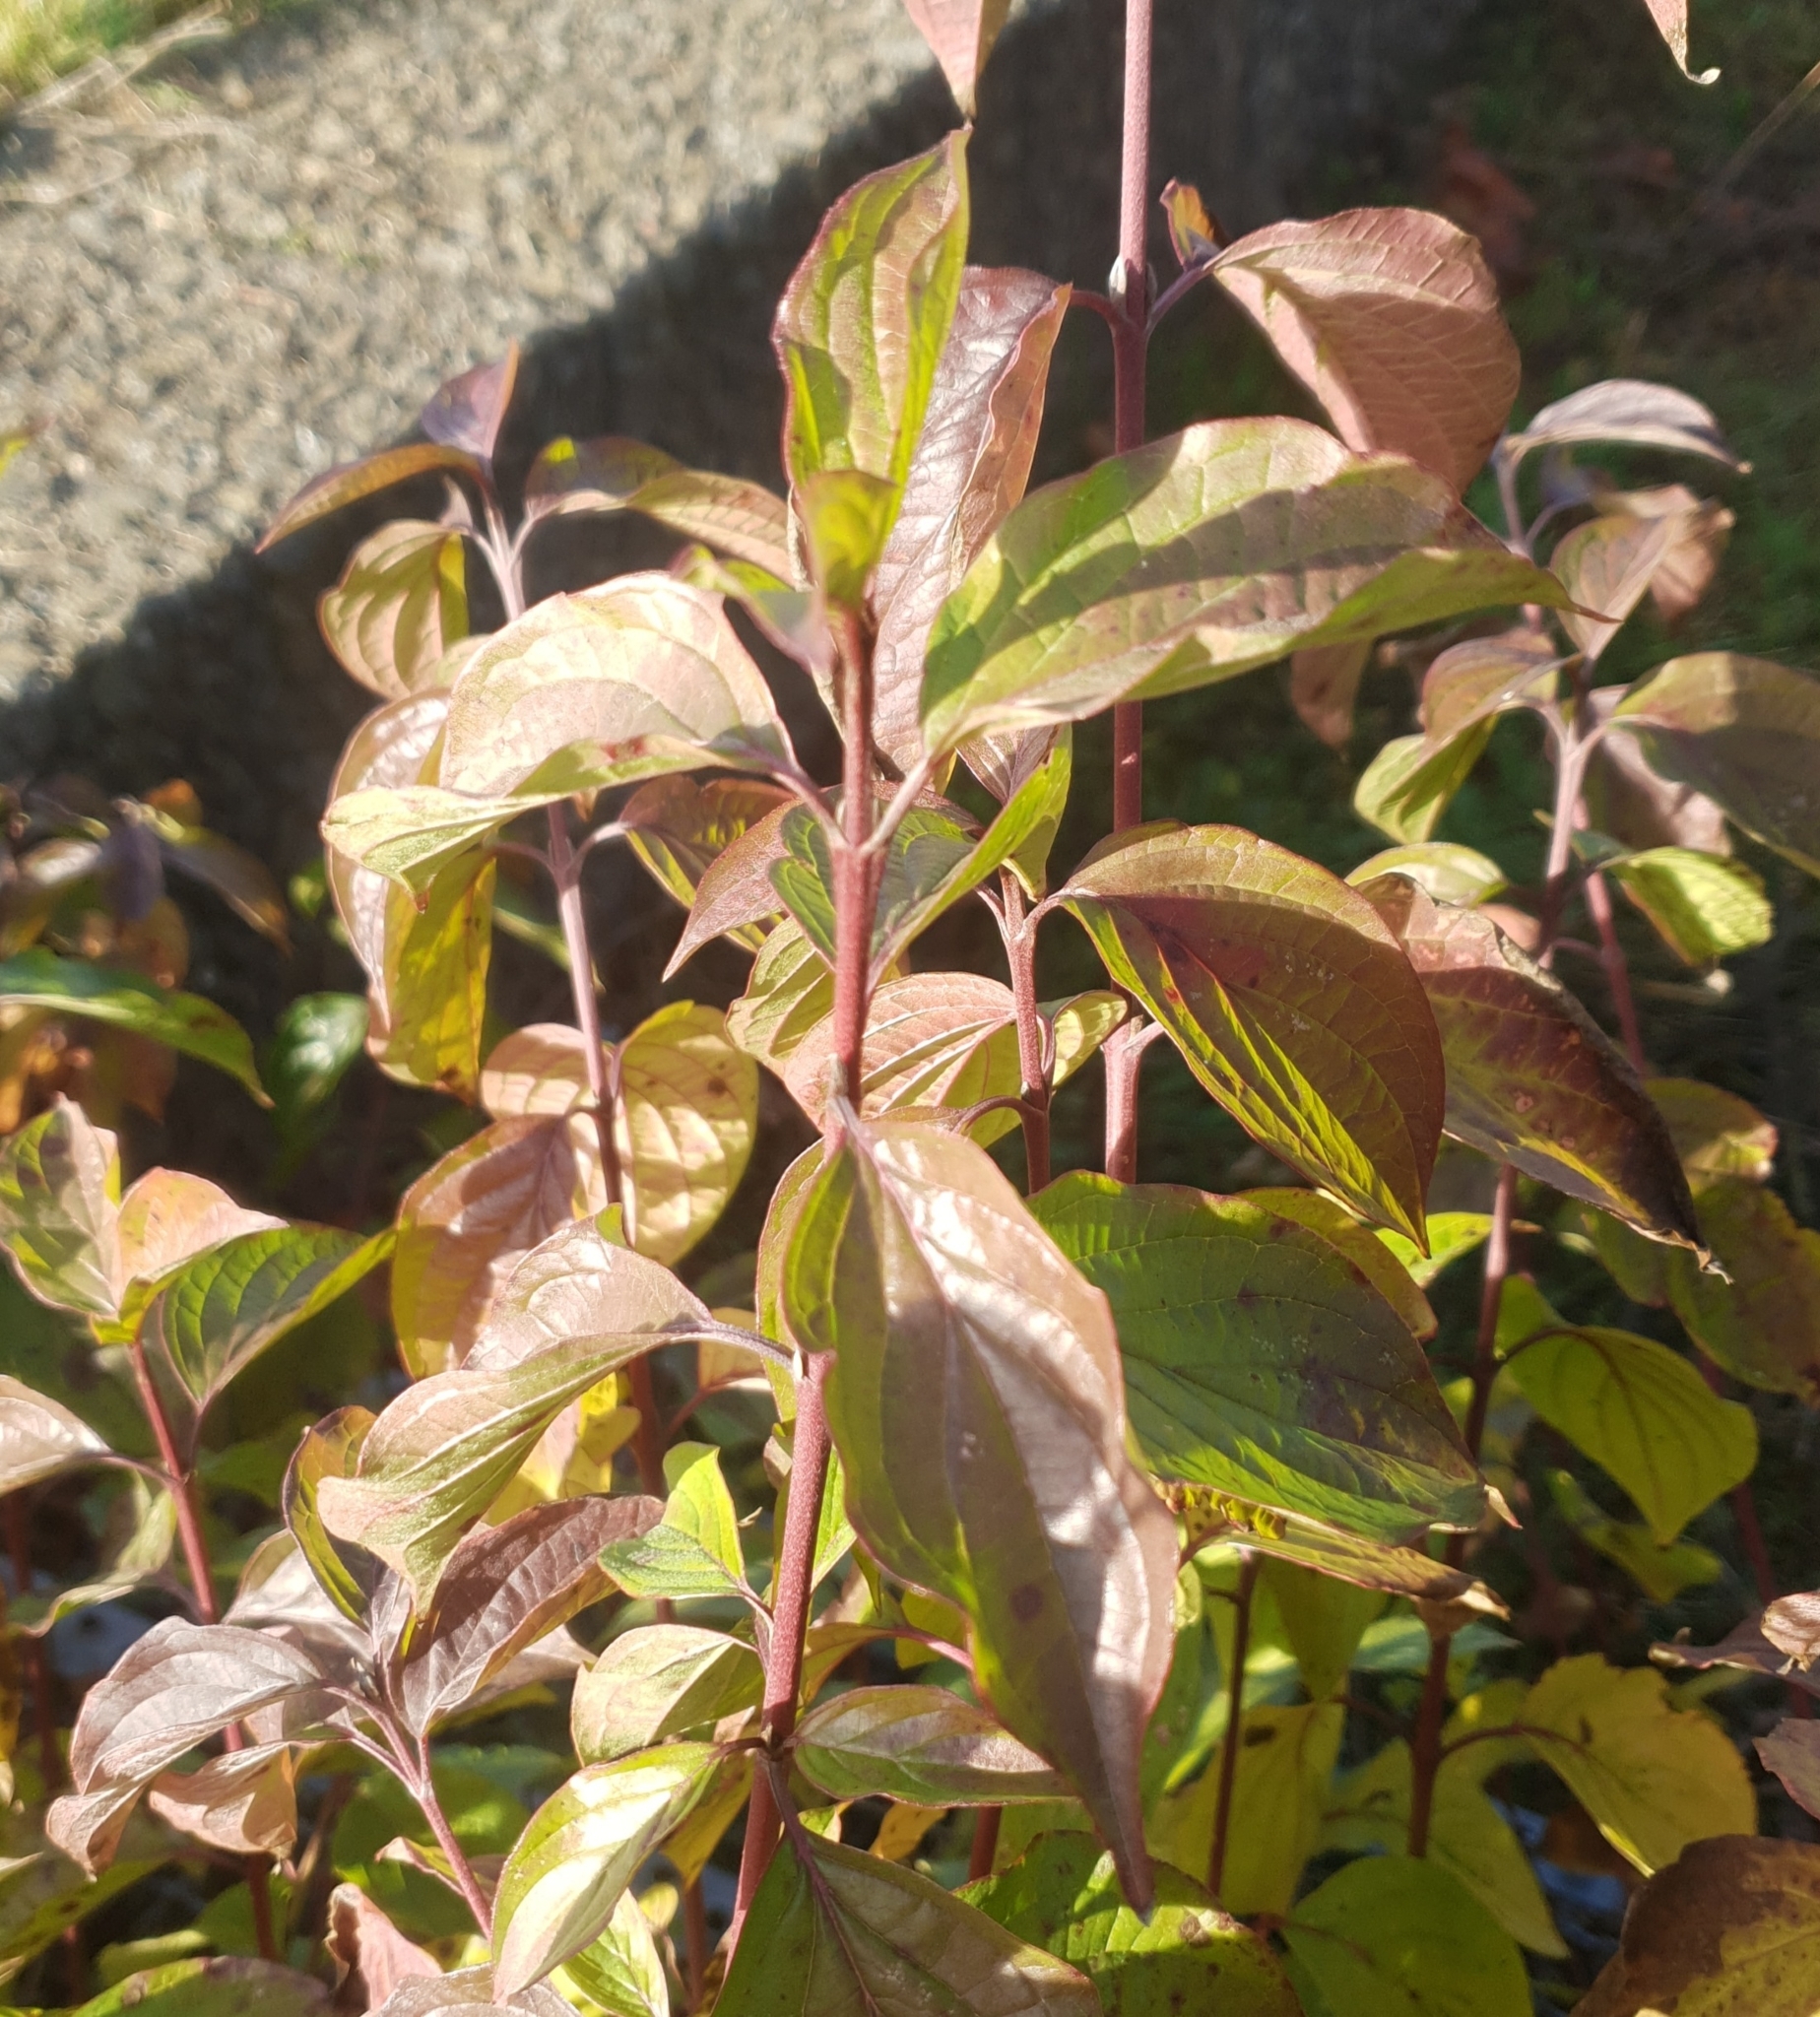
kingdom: Plantae
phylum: Tracheophyta
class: Magnoliopsida
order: Cornales
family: Cornaceae
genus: Cornus
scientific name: Cornus sanguinea
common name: Dogwood
